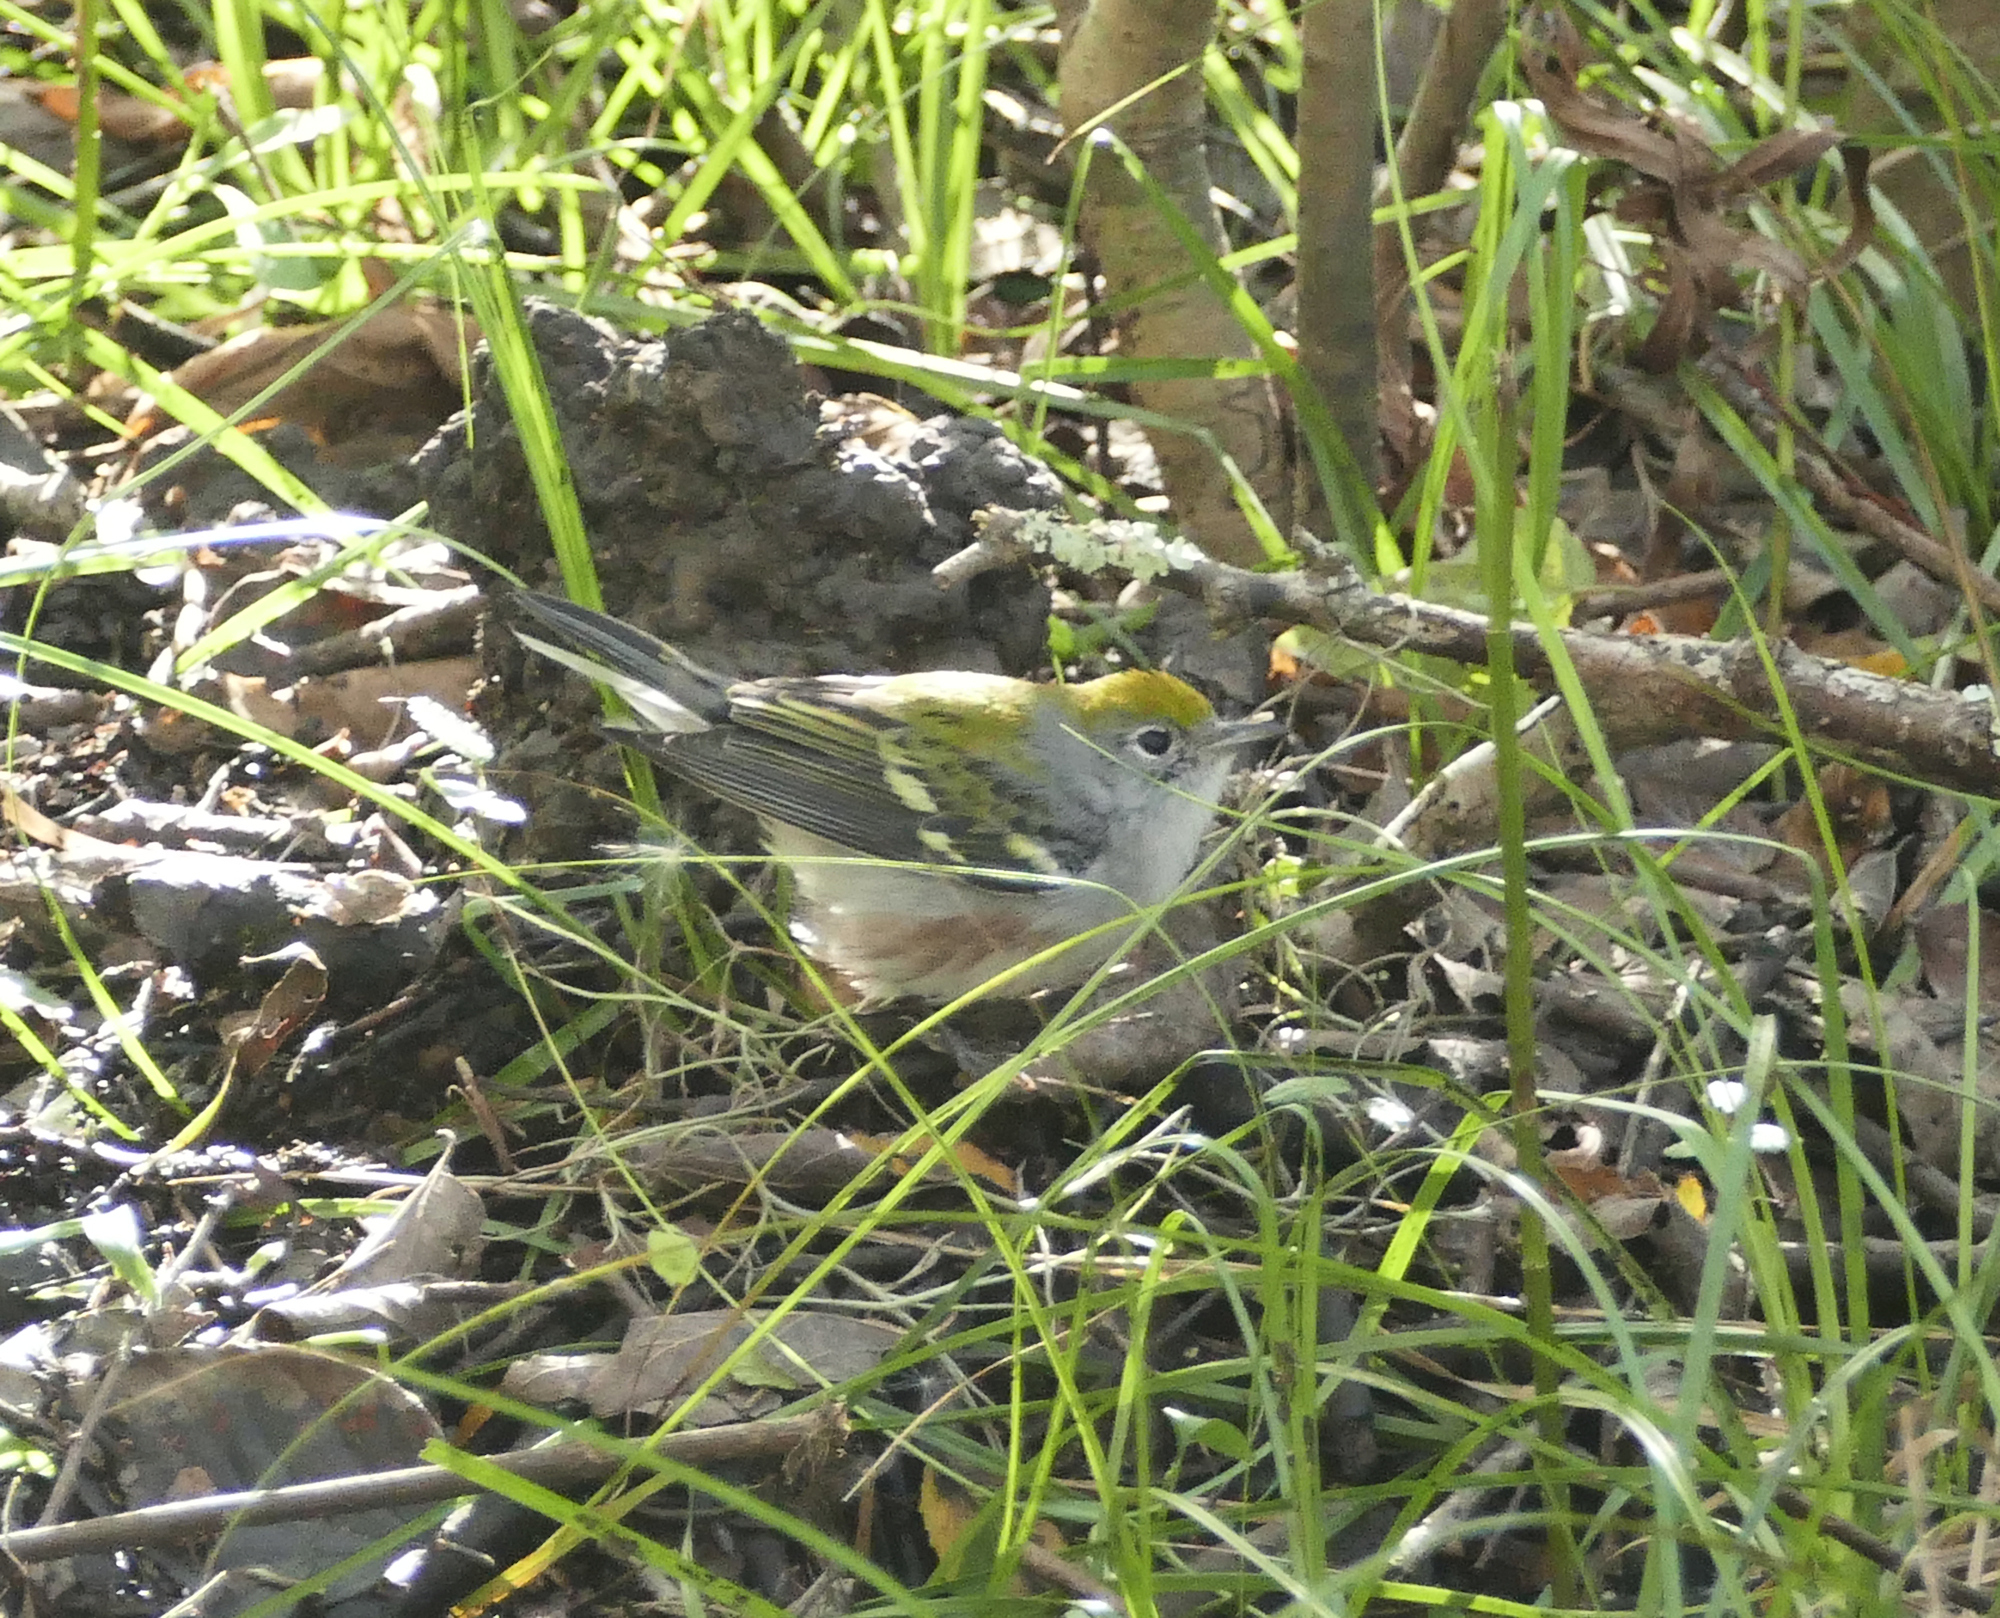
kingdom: Animalia
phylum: Chordata
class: Aves
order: Passeriformes
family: Parulidae
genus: Setophaga
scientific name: Setophaga pensylvanica
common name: Chestnut-sided warbler
